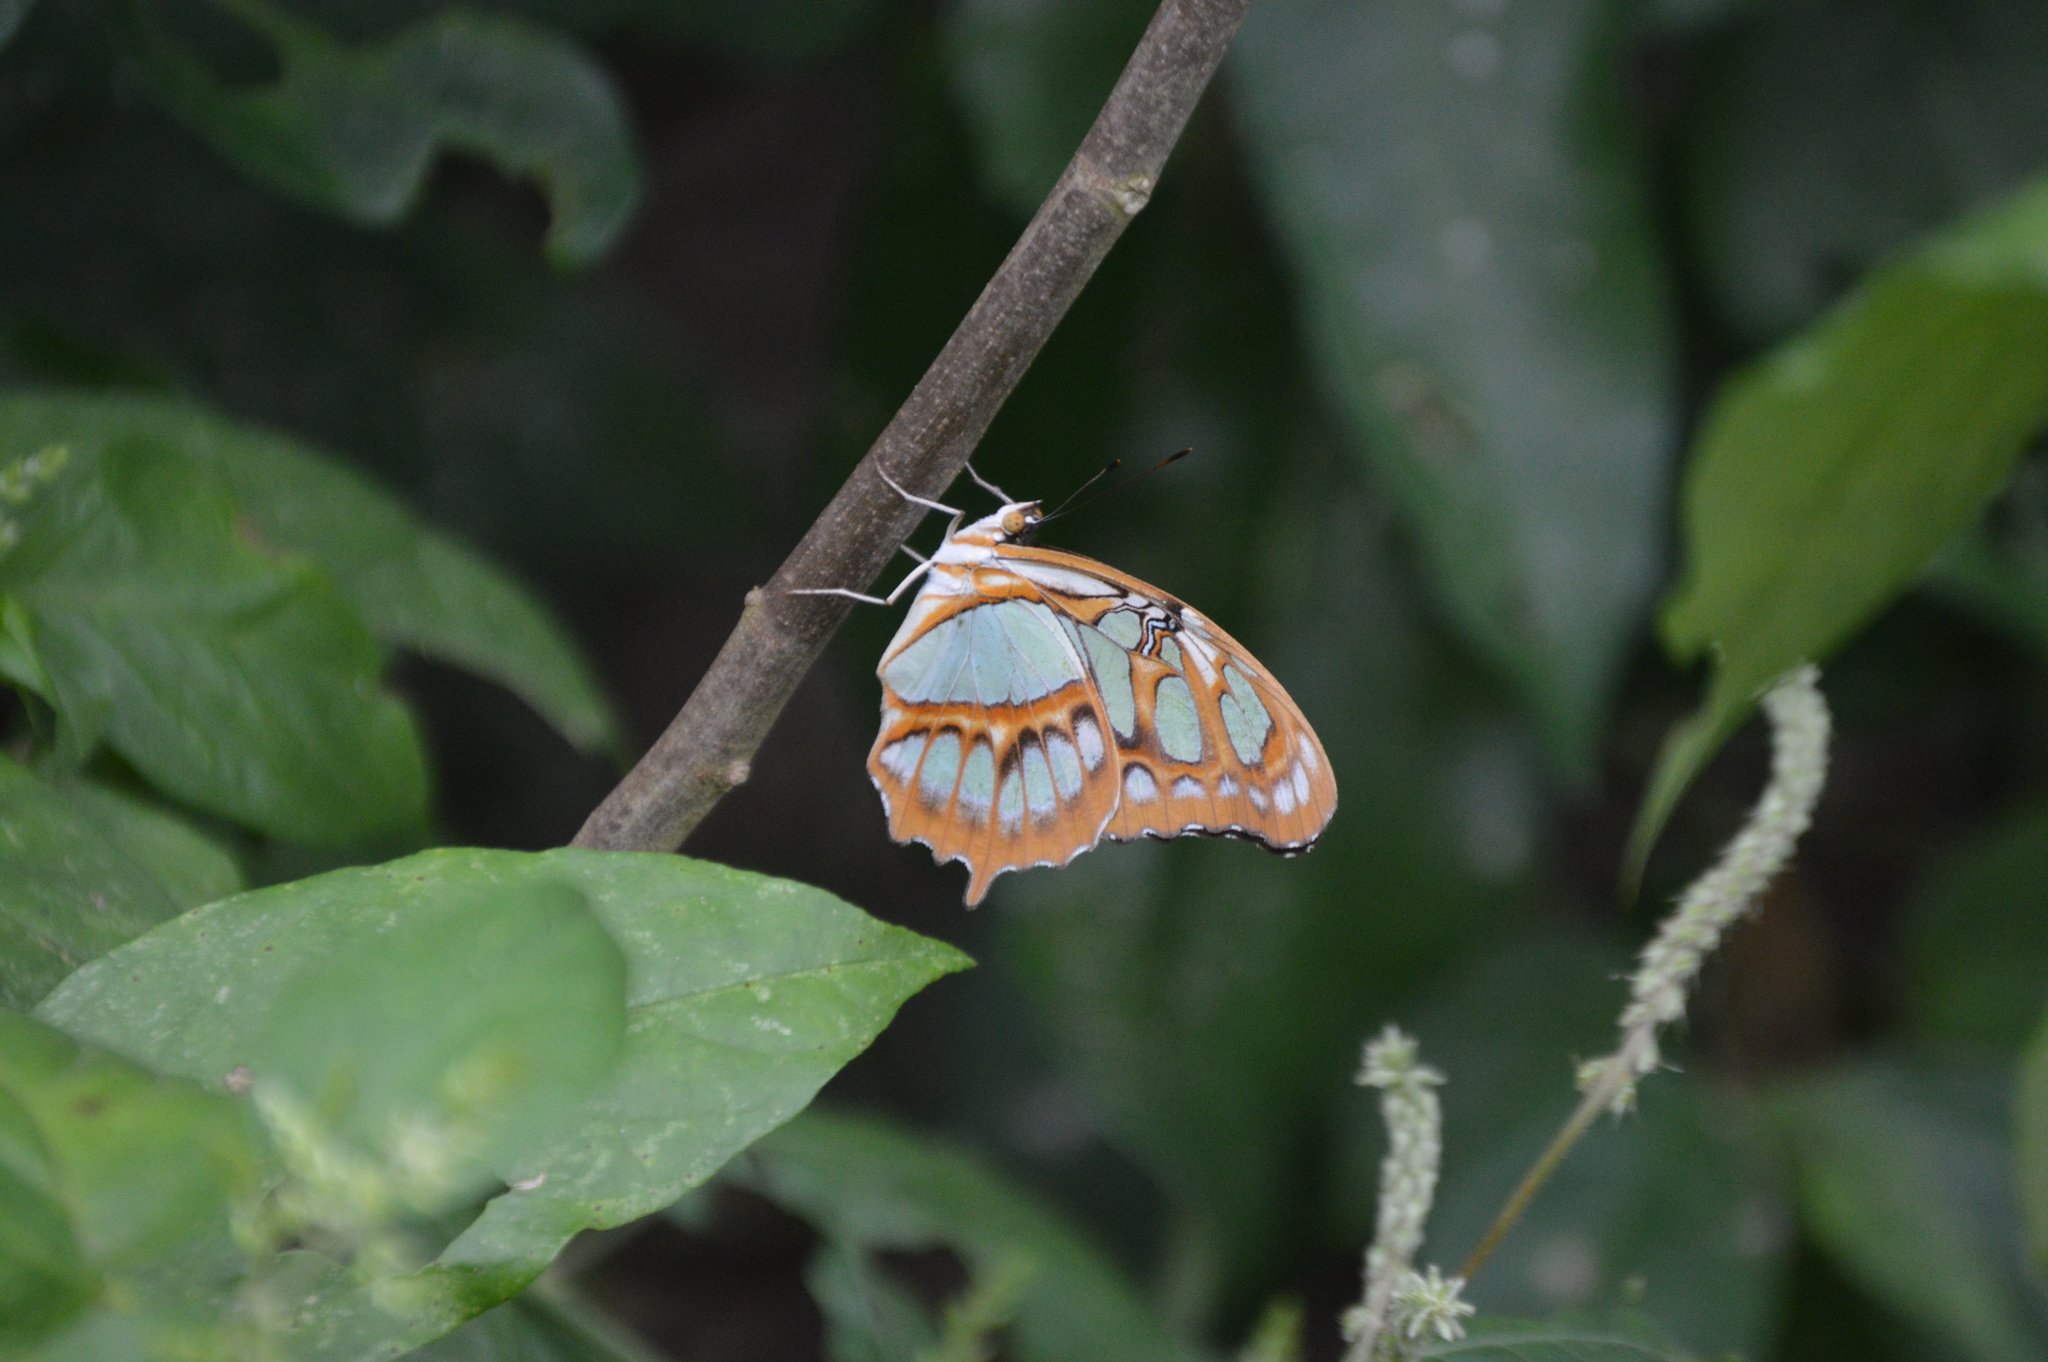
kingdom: Animalia
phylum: Arthropoda
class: Insecta
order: Lepidoptera
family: Nymphalidae
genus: Siproeta
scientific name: Siproeta stelenes
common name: Malachite
